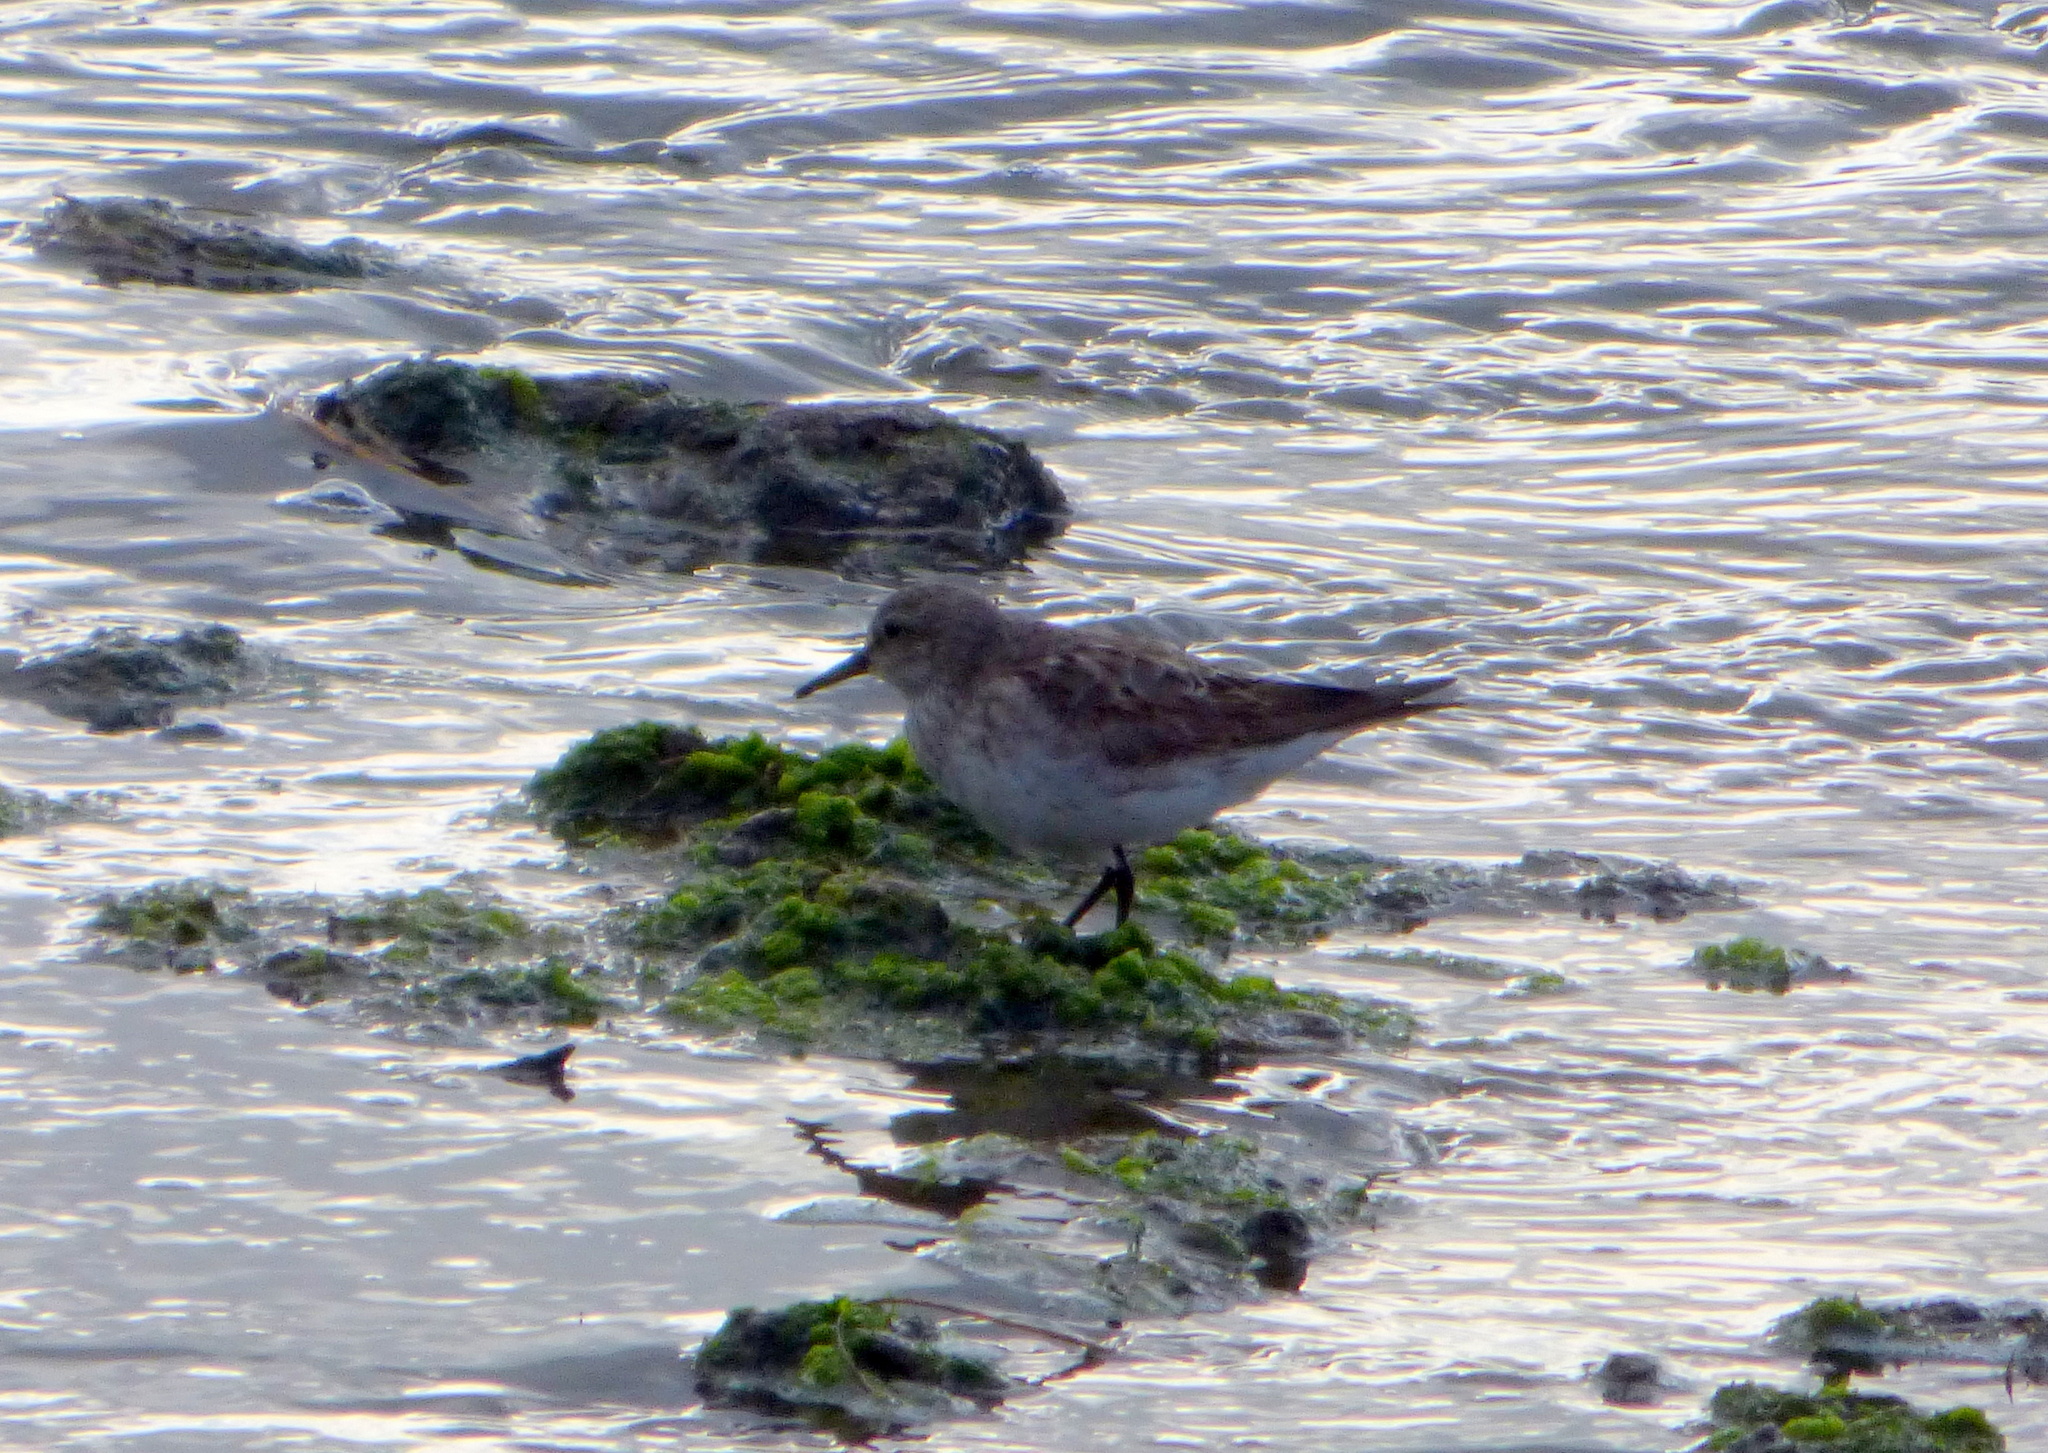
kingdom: Animalia
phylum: Chordata
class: Aves
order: Charadriiformes
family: Scolopacidae
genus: Calidris
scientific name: Calidris fuscicollis
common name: White-rumped sandpiper
